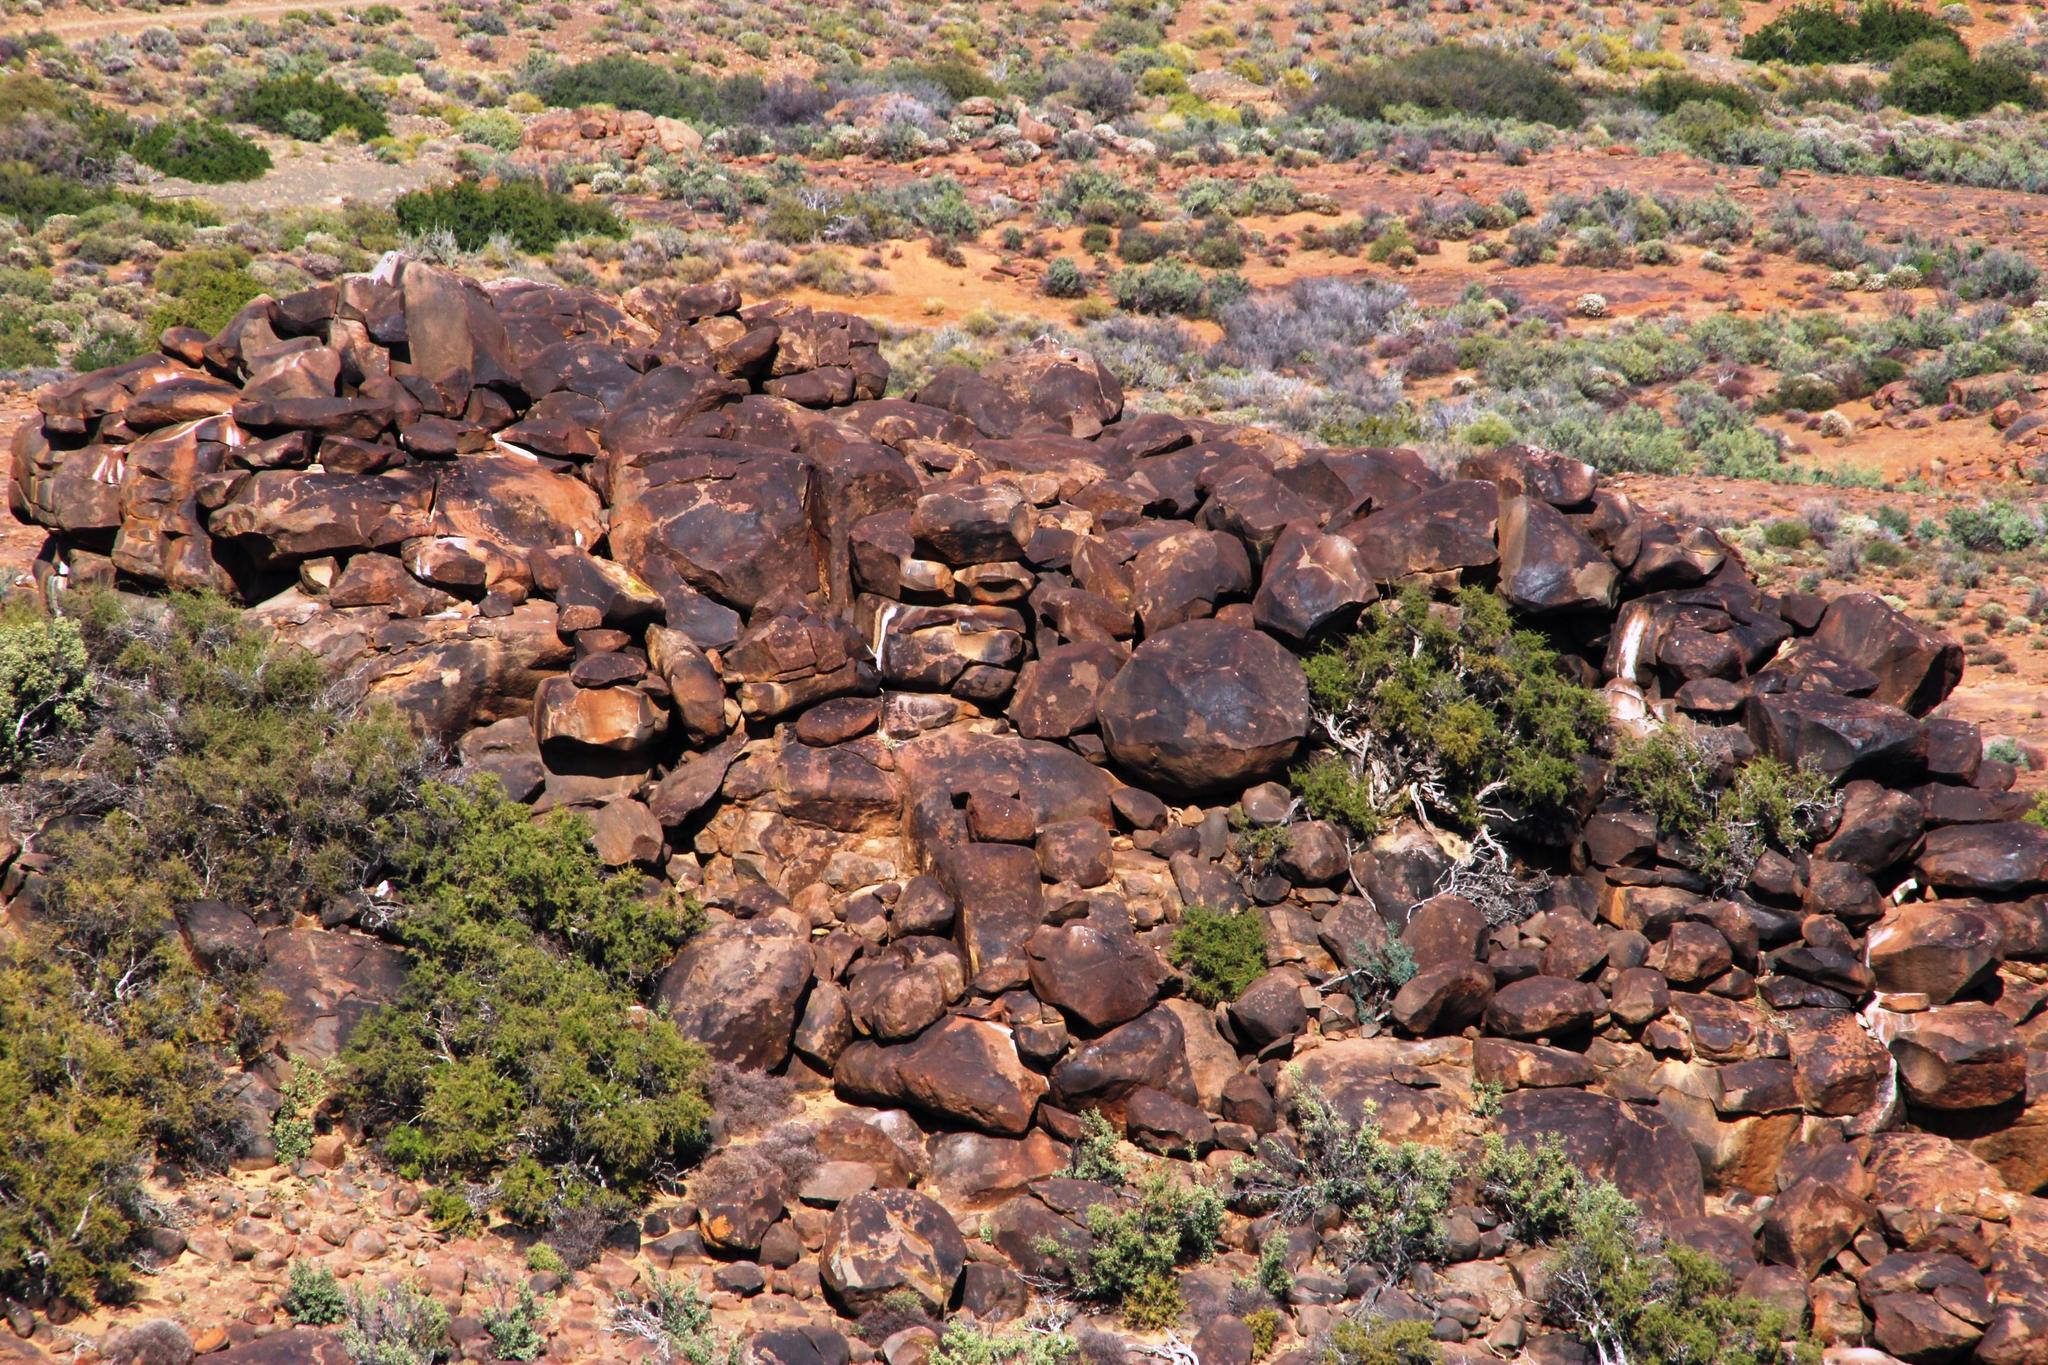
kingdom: Animalia
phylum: Chordata
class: Mammalia
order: Hyracoidea
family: Procaviidae
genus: Procavia
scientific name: Procavia capensis
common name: Rock hyrax
